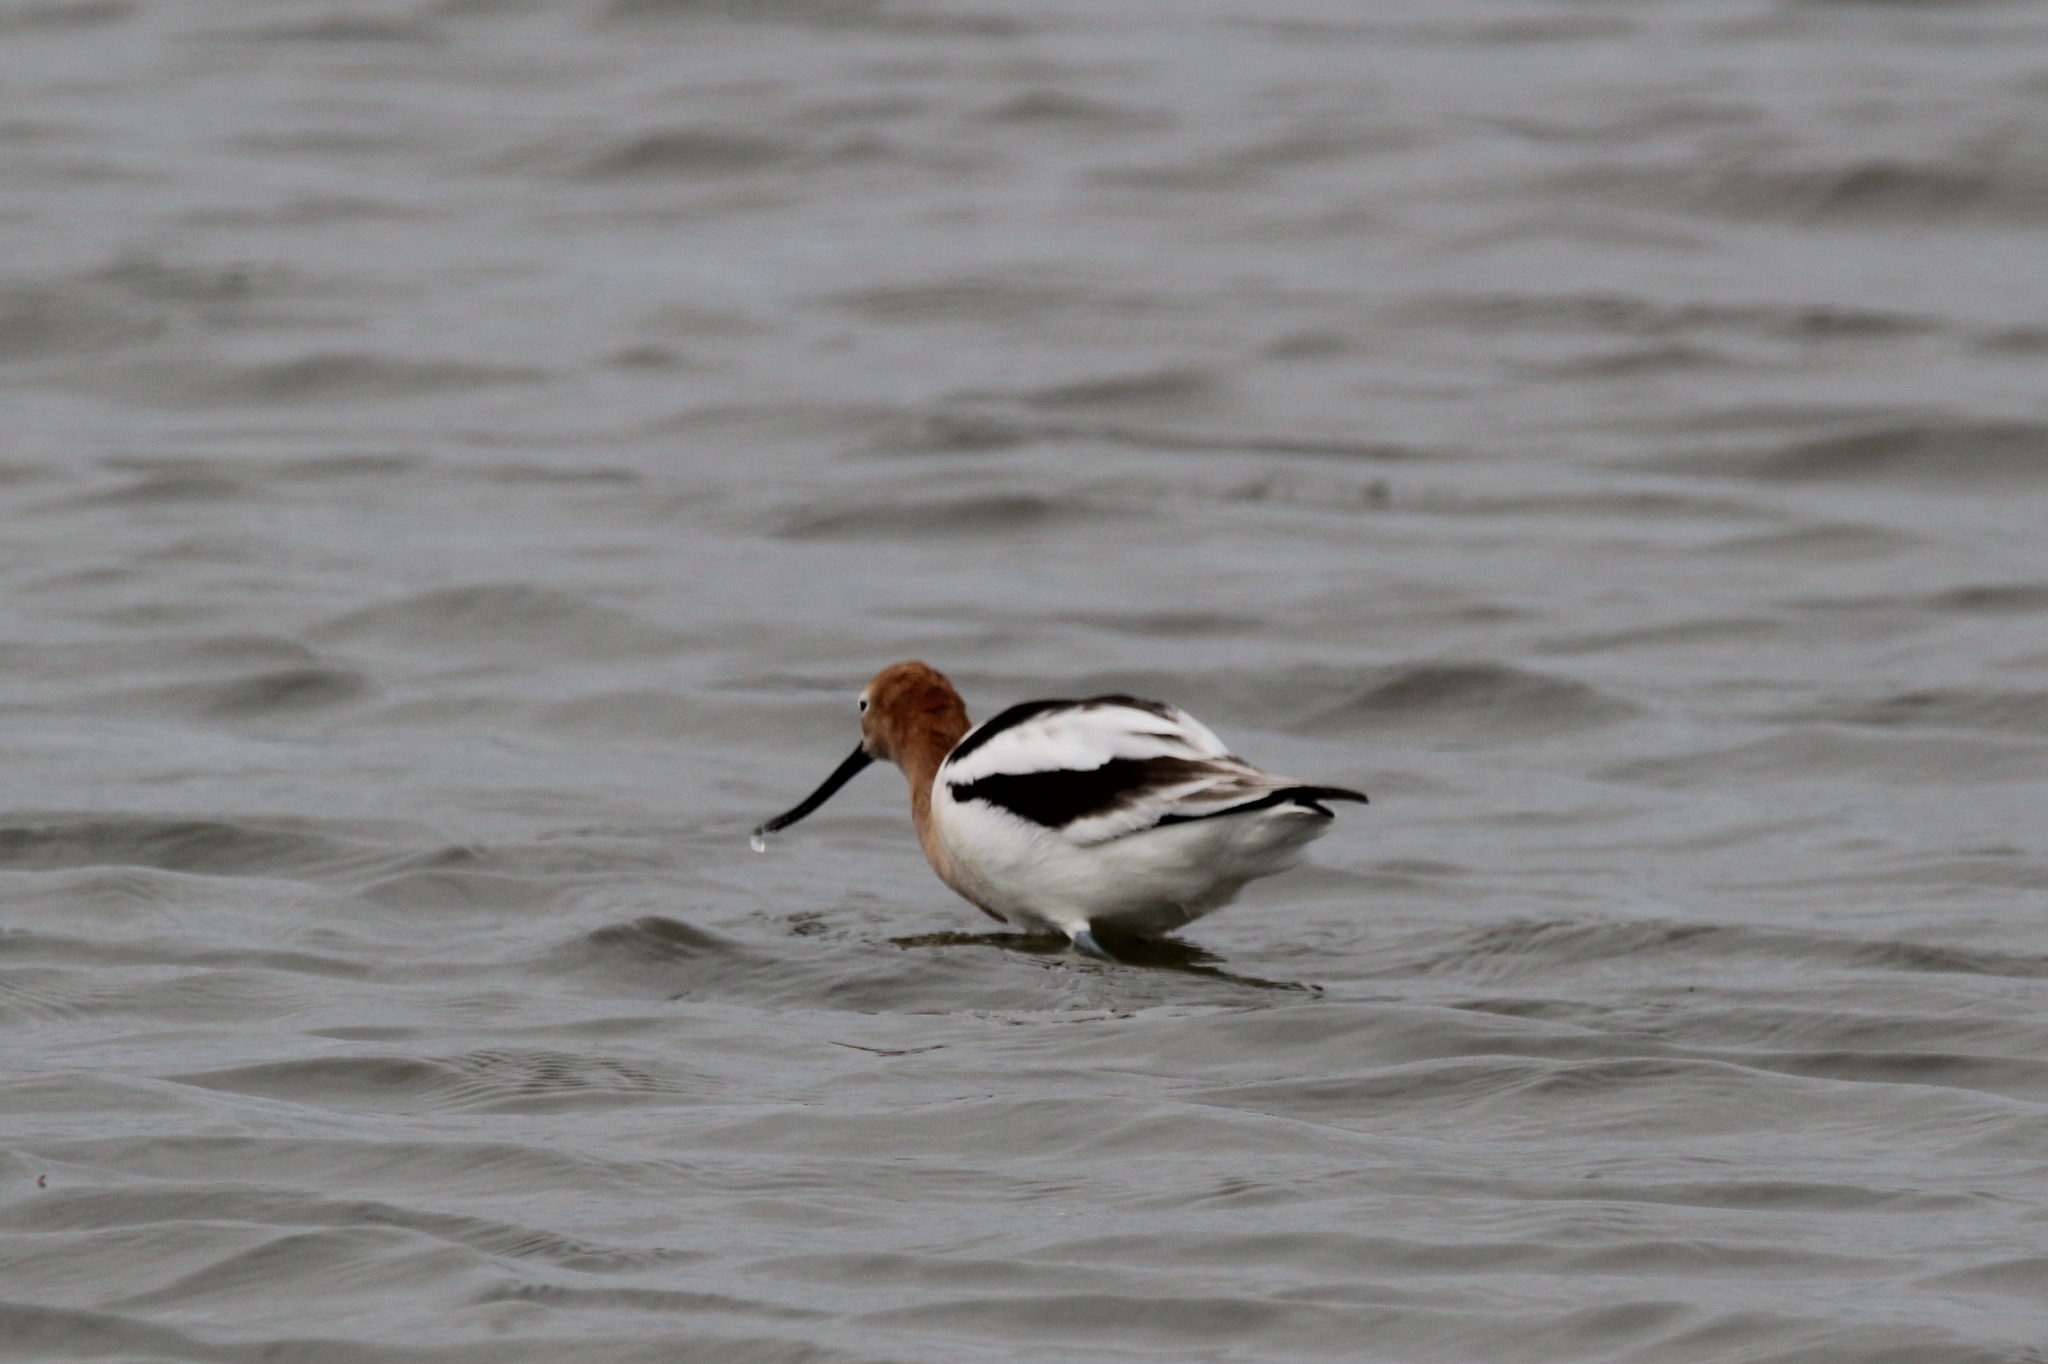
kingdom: Animalia
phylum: Chordata
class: Aves
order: Charadriiformes
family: Recurvirostridae
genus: Recurvirostra
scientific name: Recurvirostra americana
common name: American avocet
